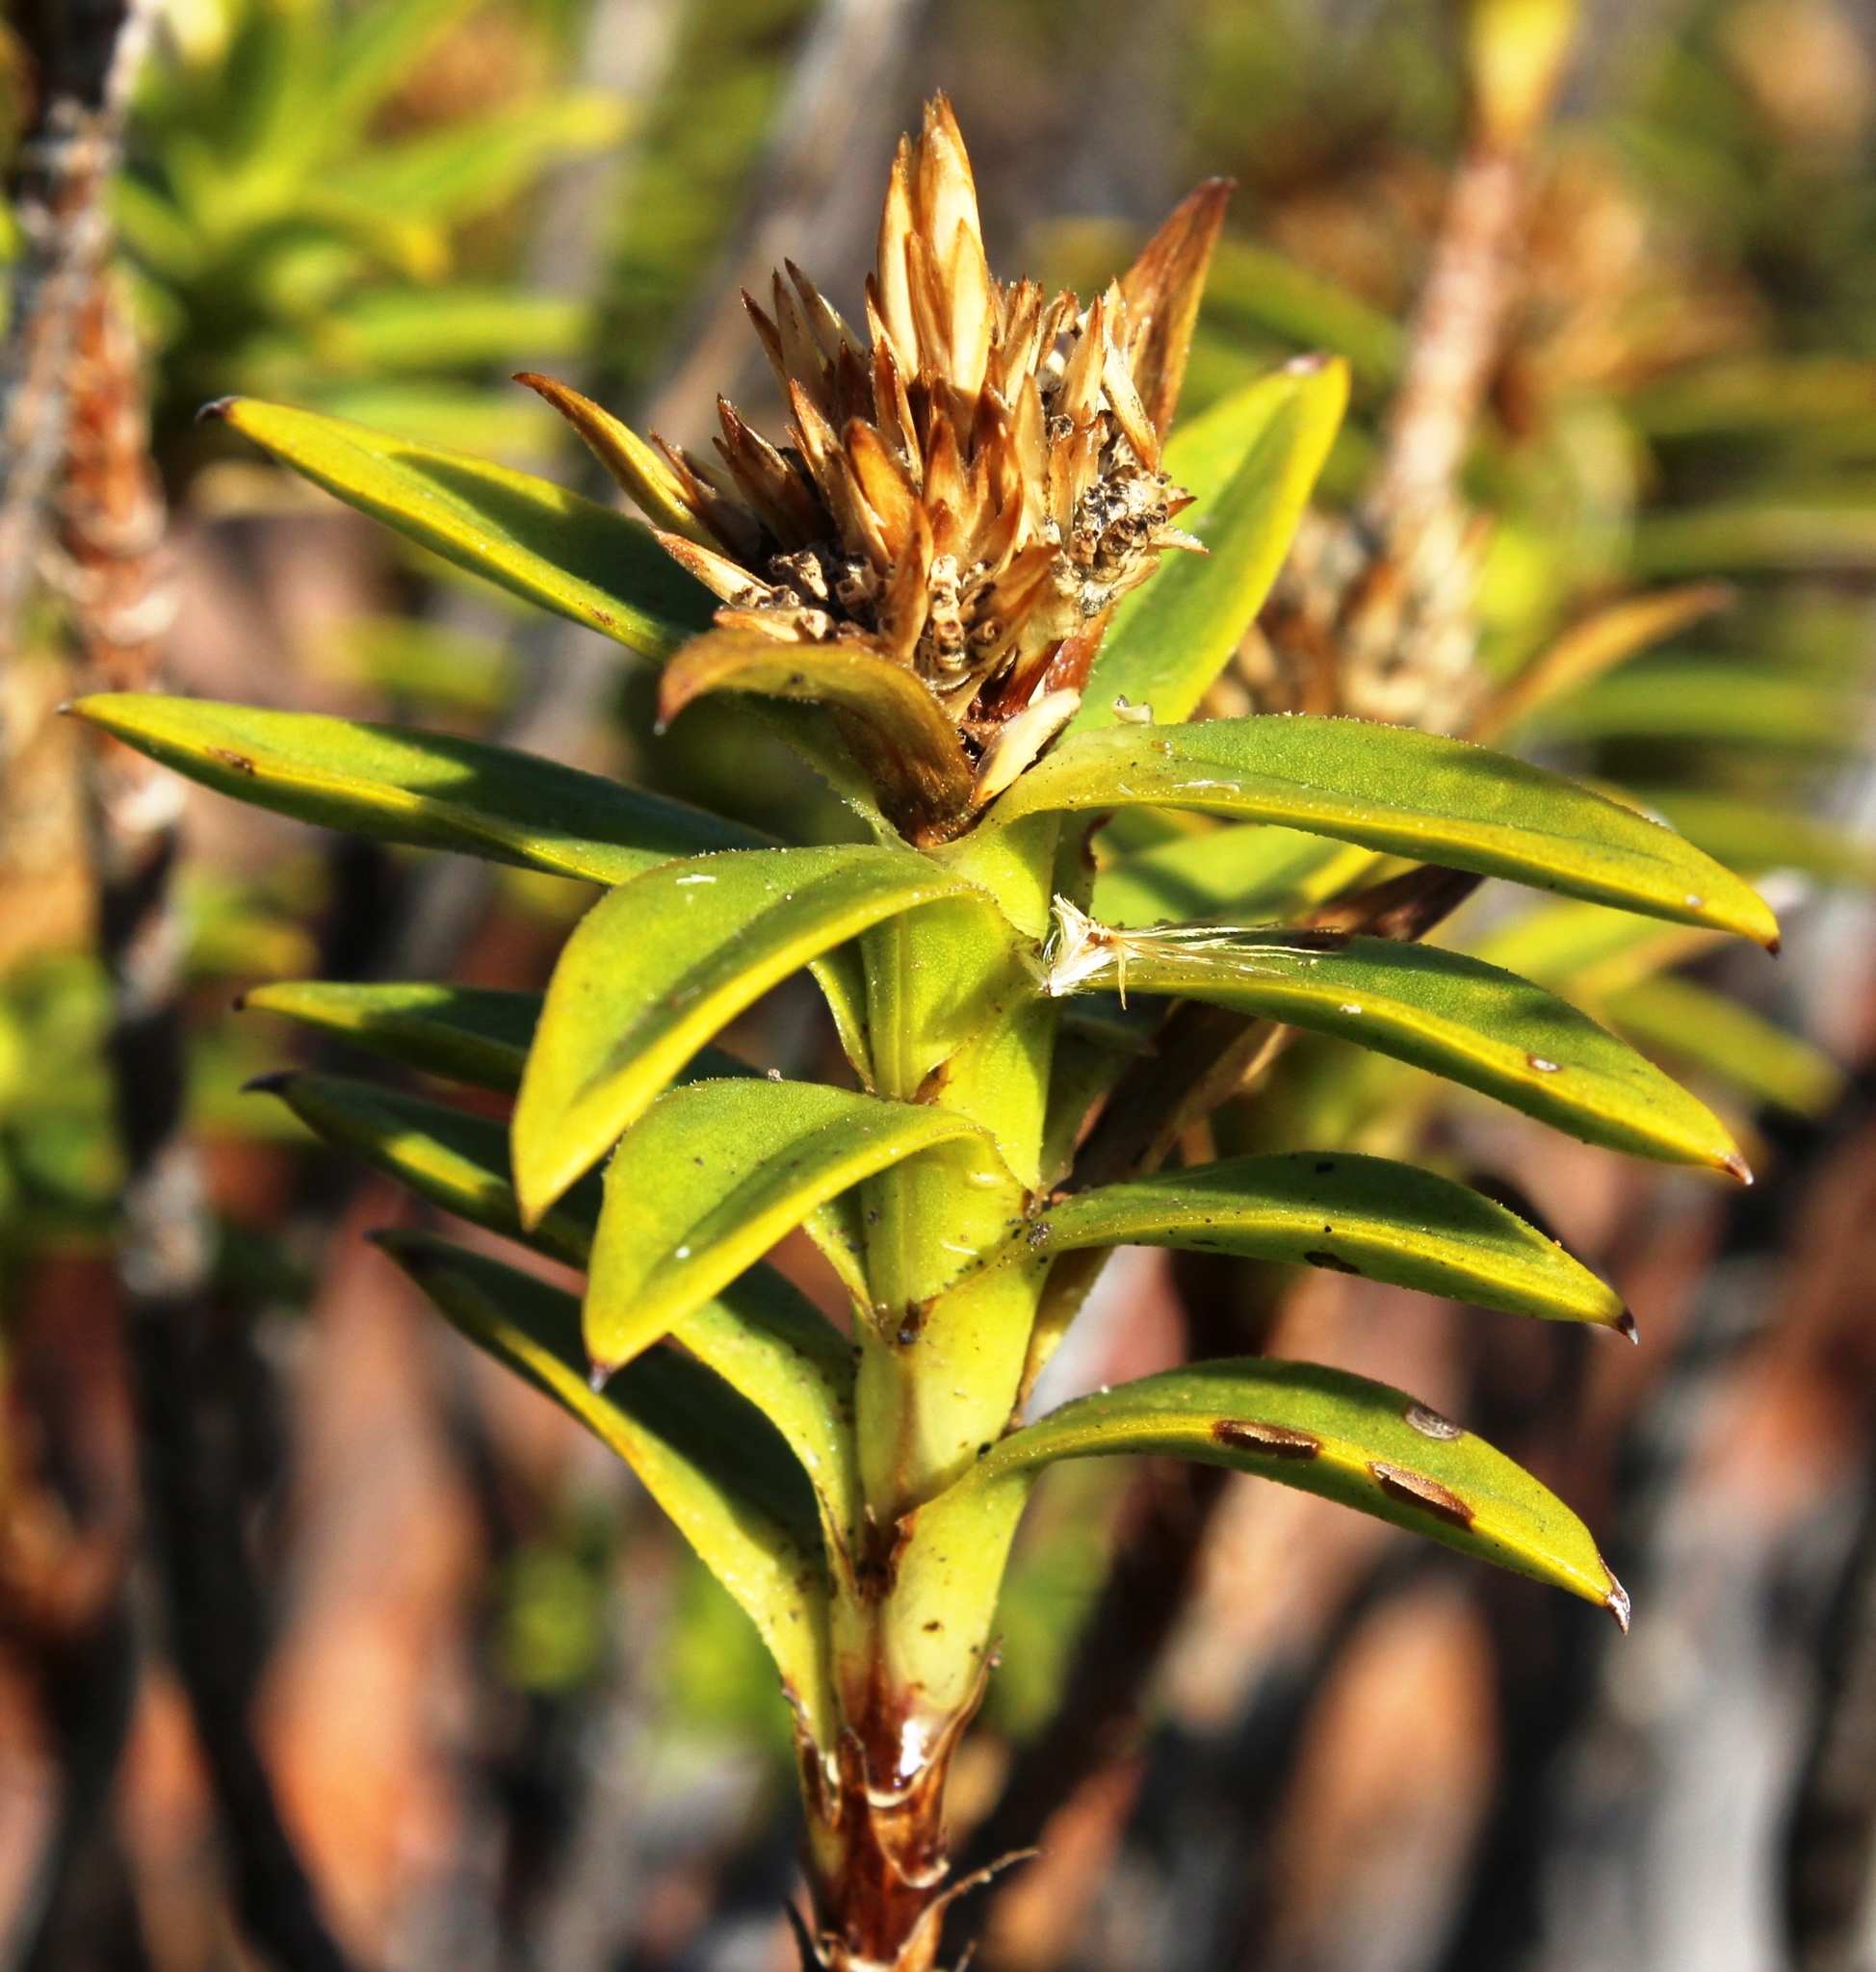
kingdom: Plantae
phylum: Tracheophyta
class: Magnoliopsida
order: Asterales
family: Asteraceae
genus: Pteronia
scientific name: Pteronia fasciculata
